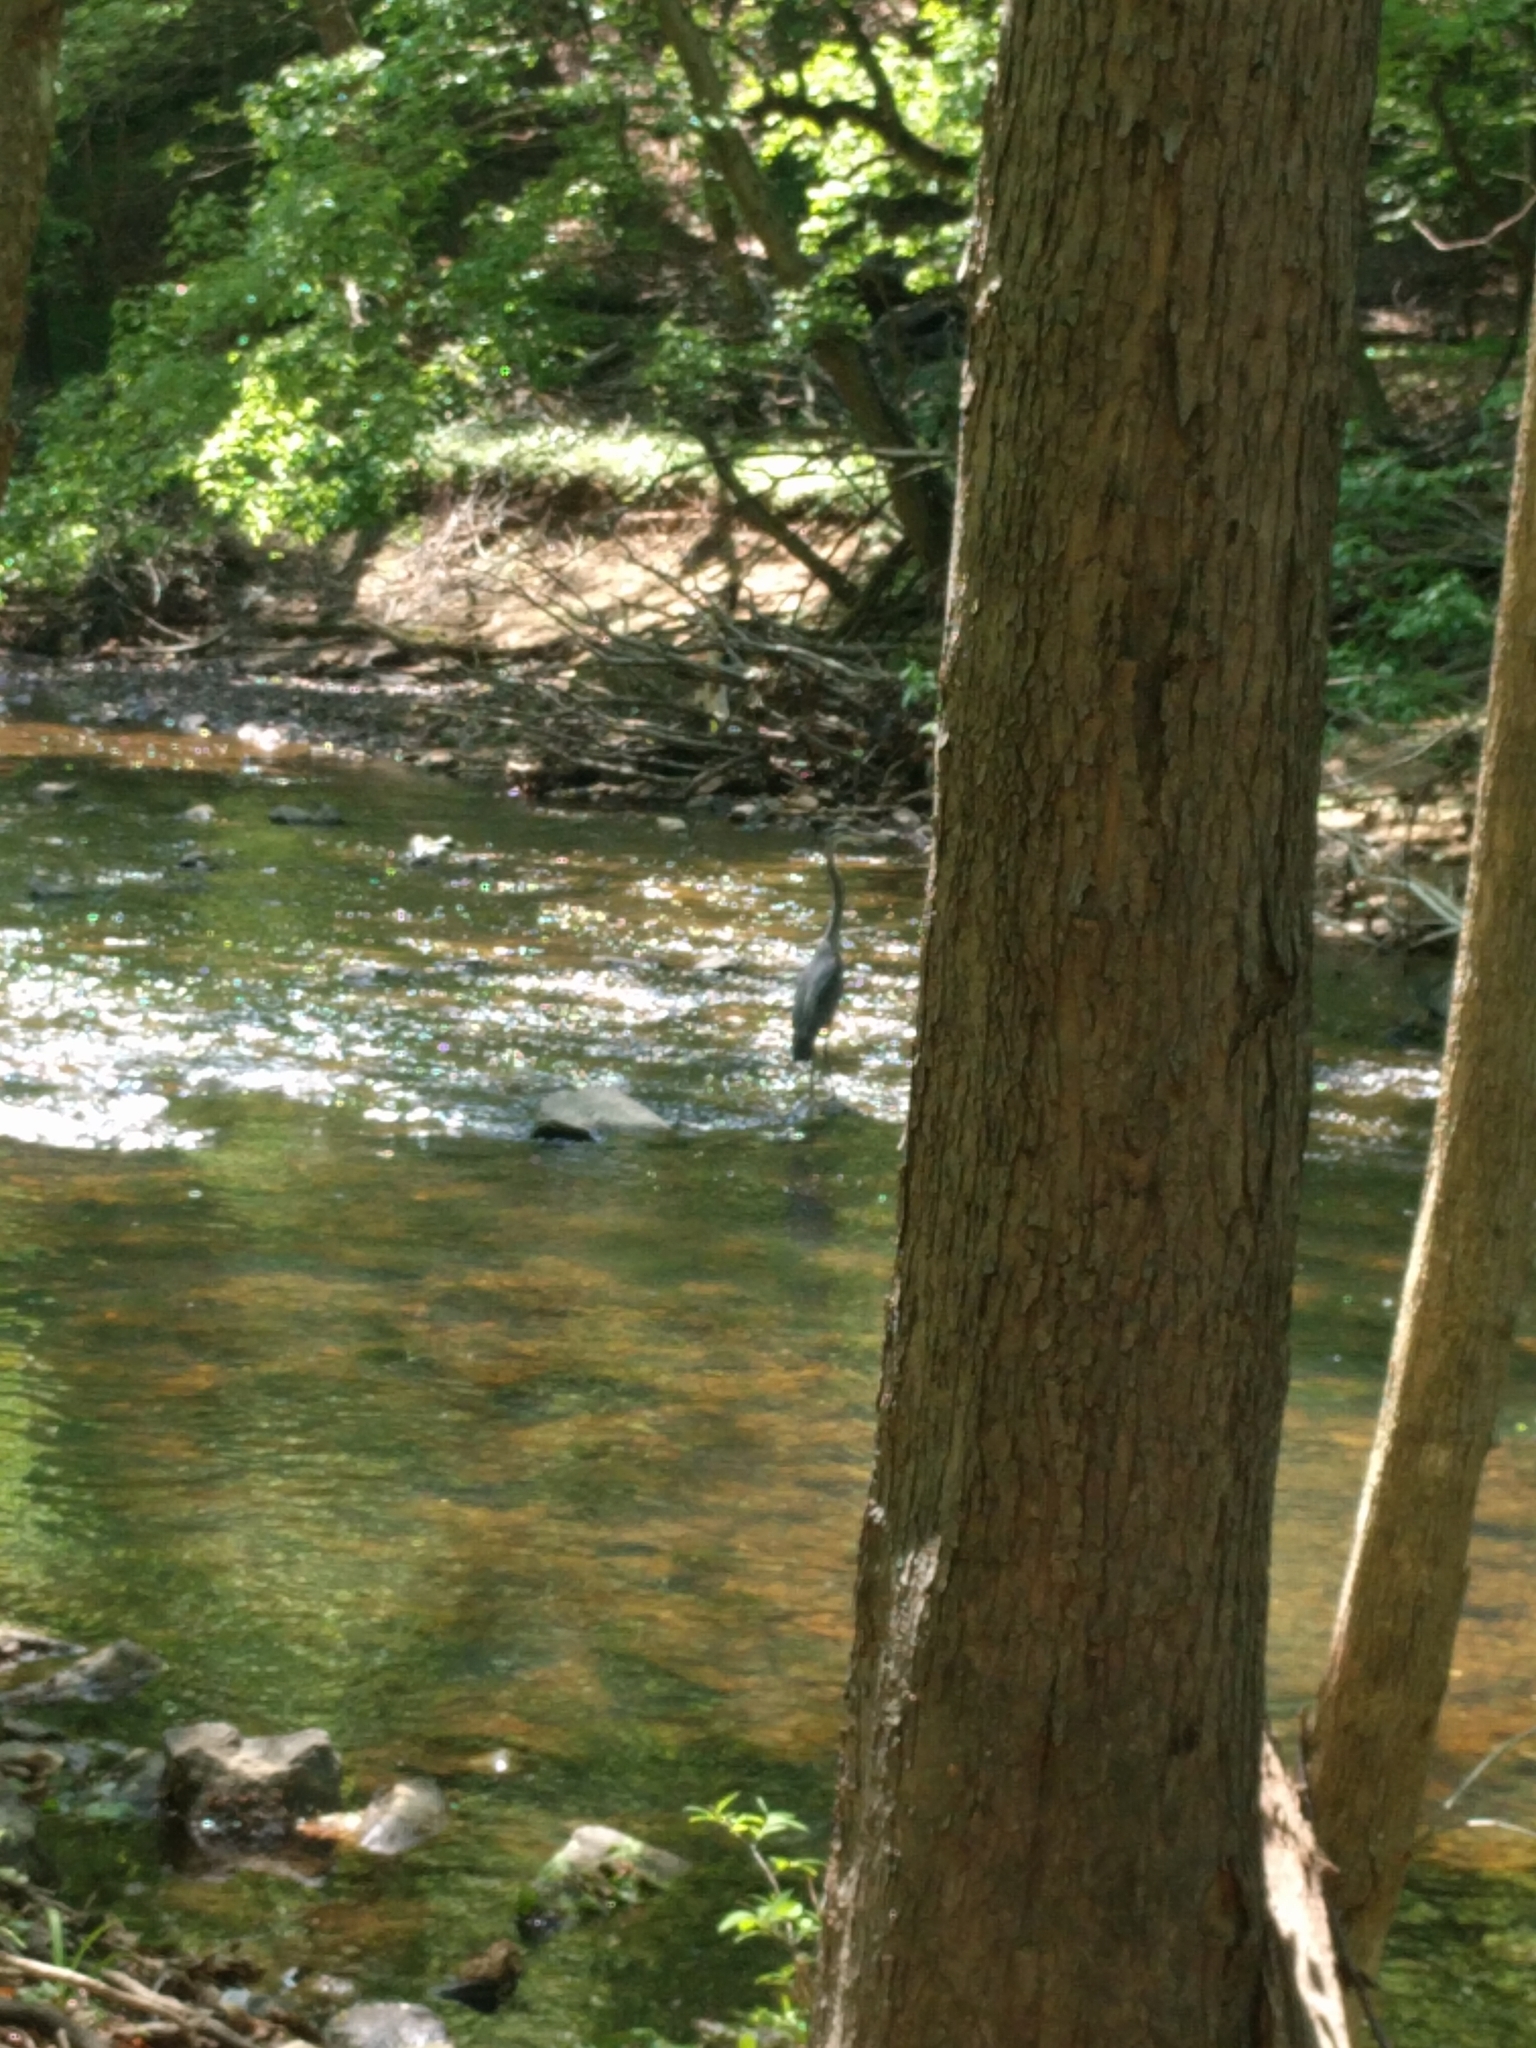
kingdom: Animalia
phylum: Chordata
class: Aves
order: Pelecaniformes
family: Ardeidae
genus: Ardea
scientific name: Ardea herodias
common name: Great blue heron
